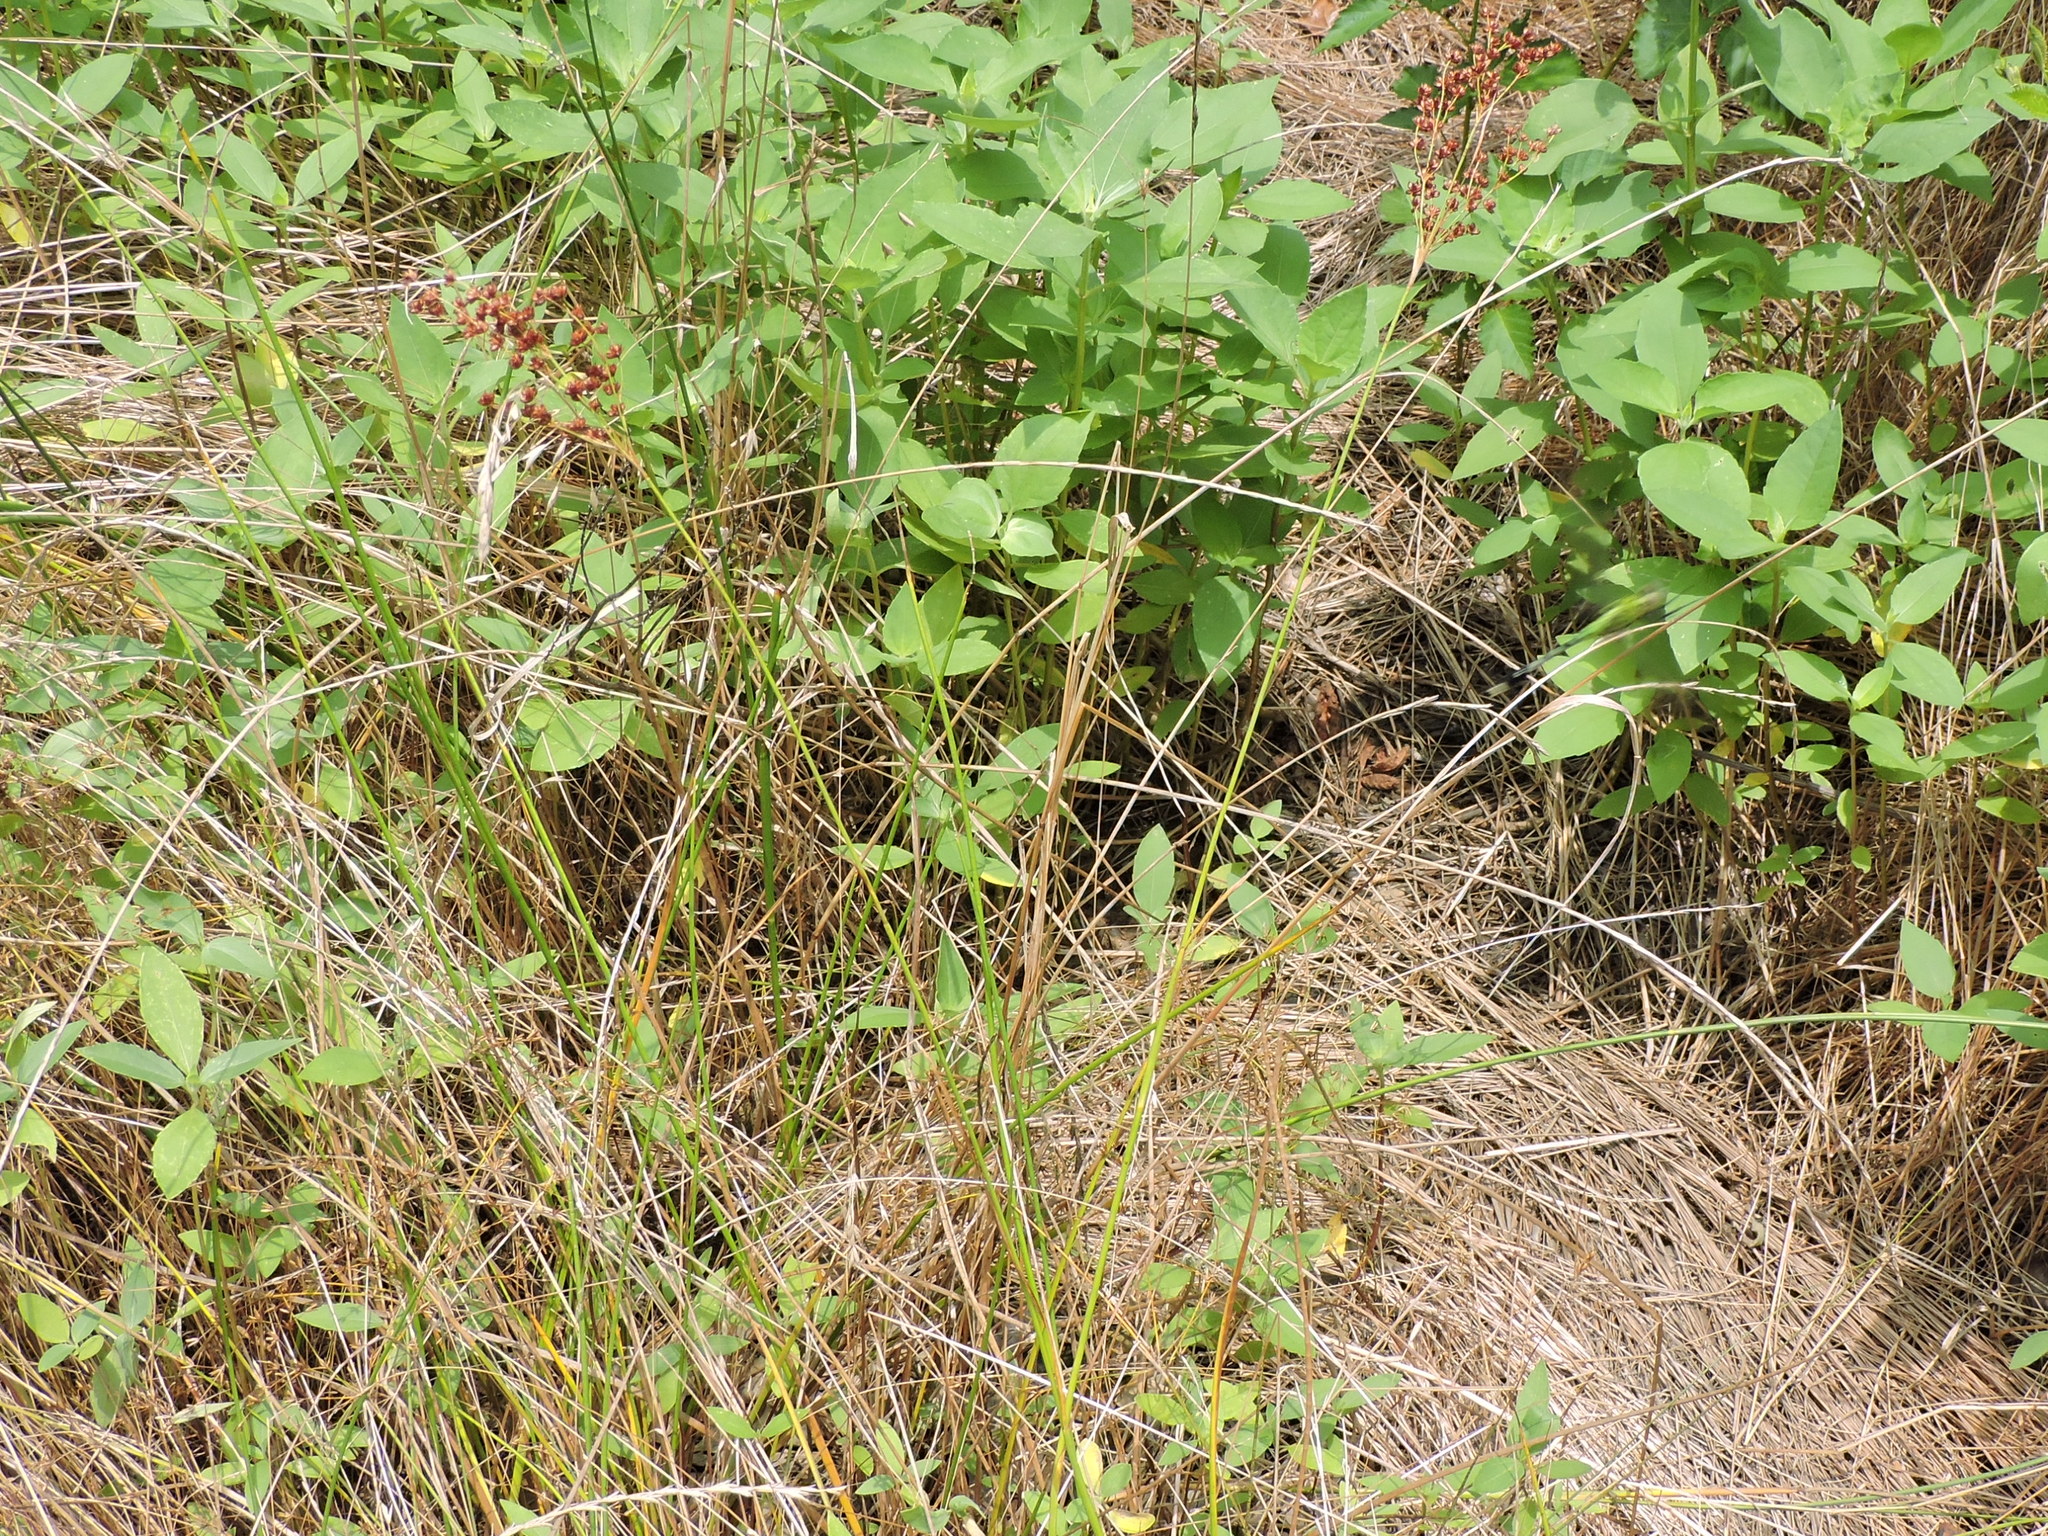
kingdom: Plantae
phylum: Tracheophyta
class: Liliopsida
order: Poales
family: Juncaceae
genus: Juncus
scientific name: Juncus marginatus
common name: Grass-leaf rush
